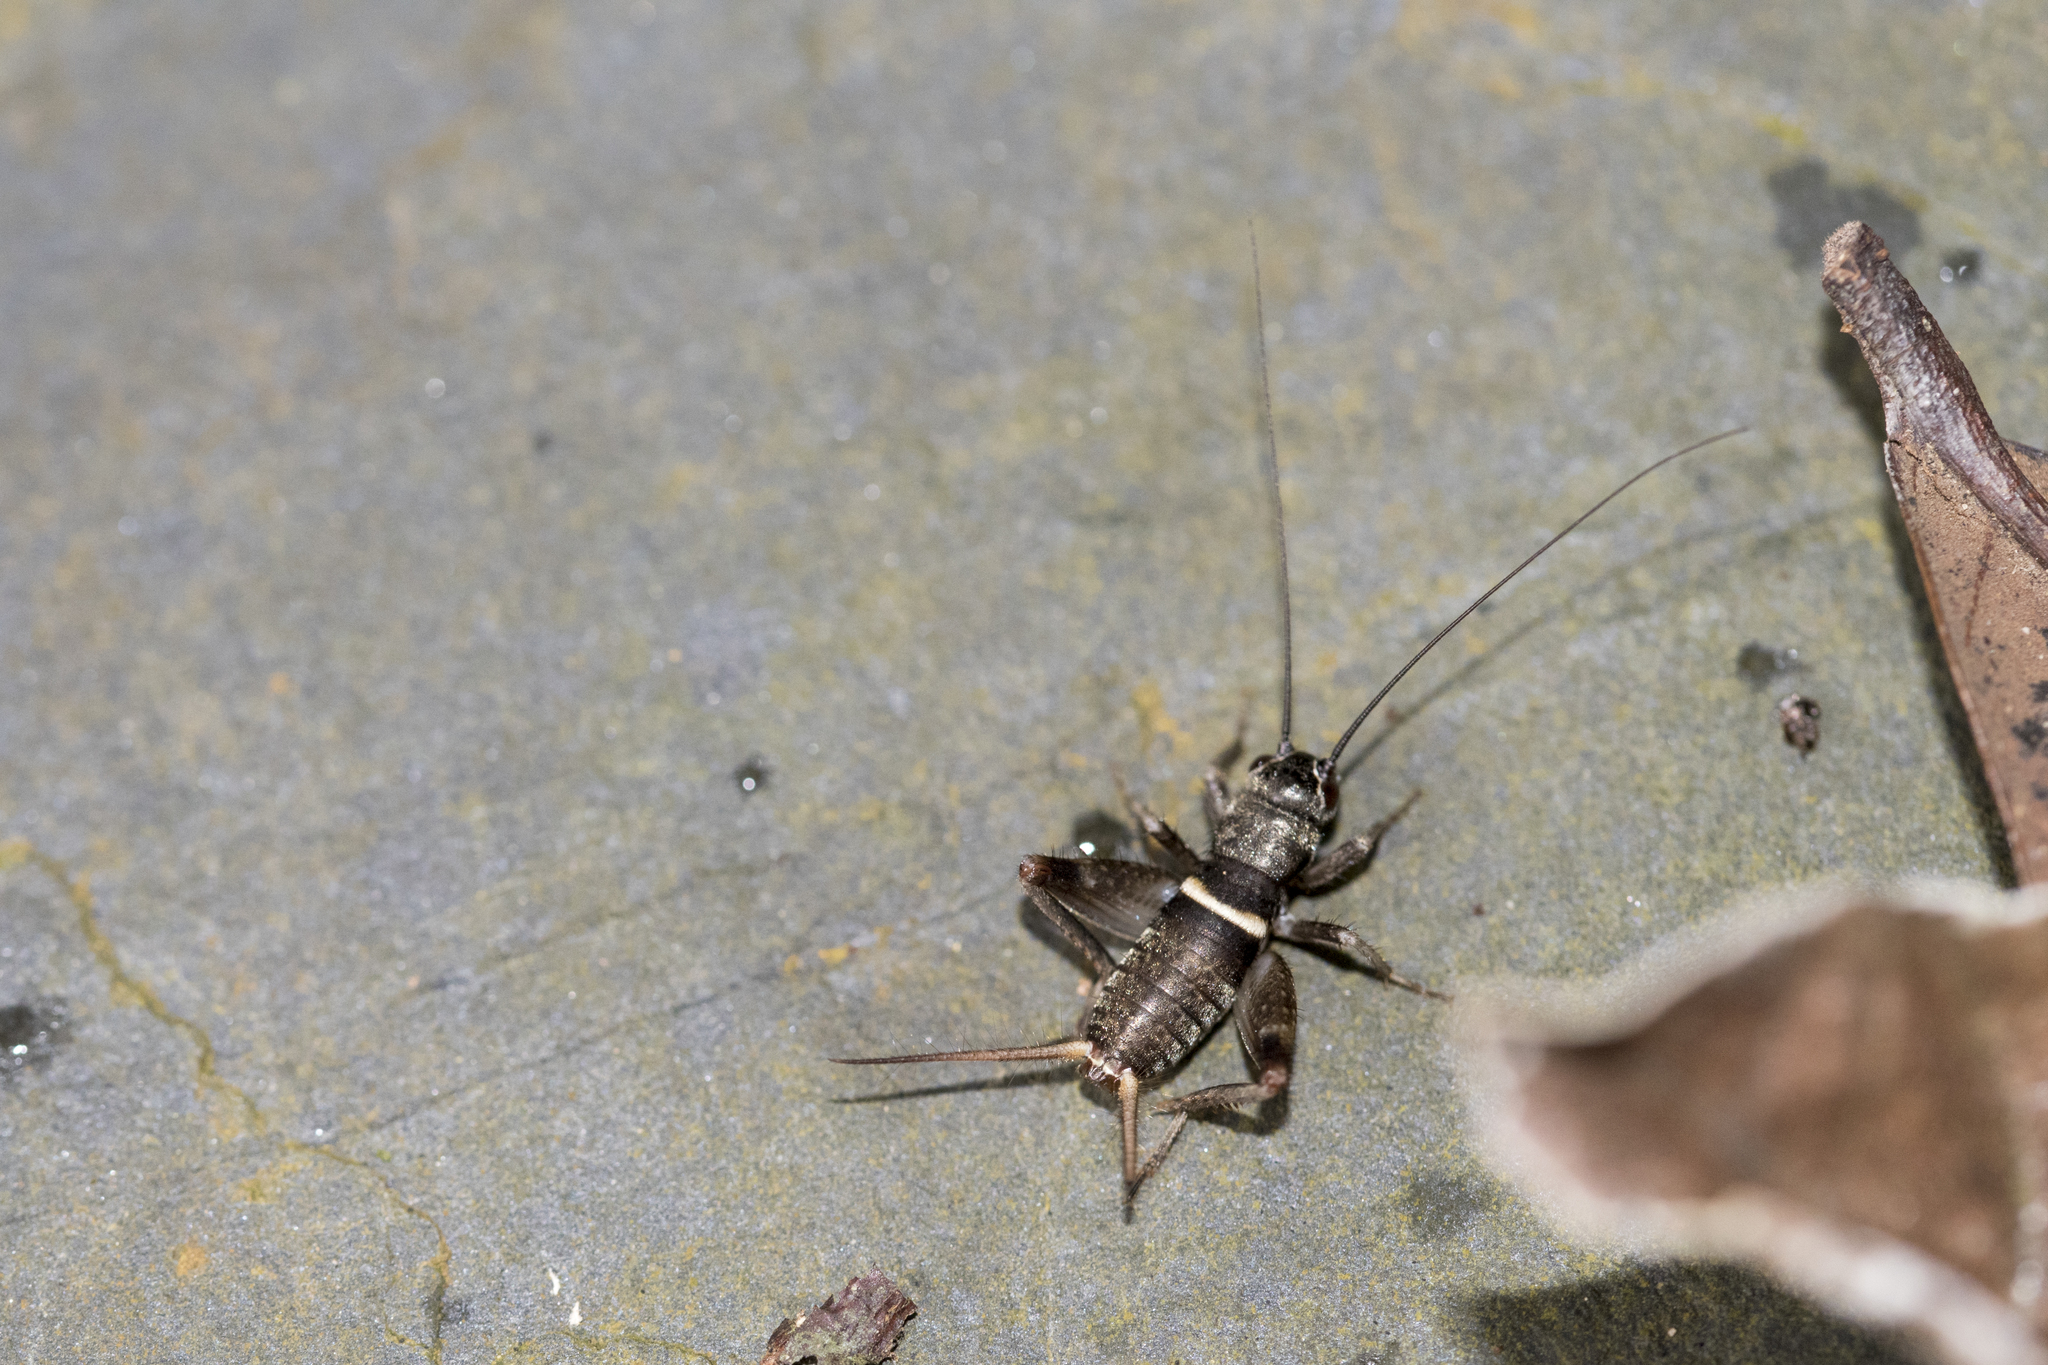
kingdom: Animalia
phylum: Arthropoda
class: Insecta
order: Orthoptera
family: Gryllidae
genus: Teleogryllus
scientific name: Teleogryllus mitratus
